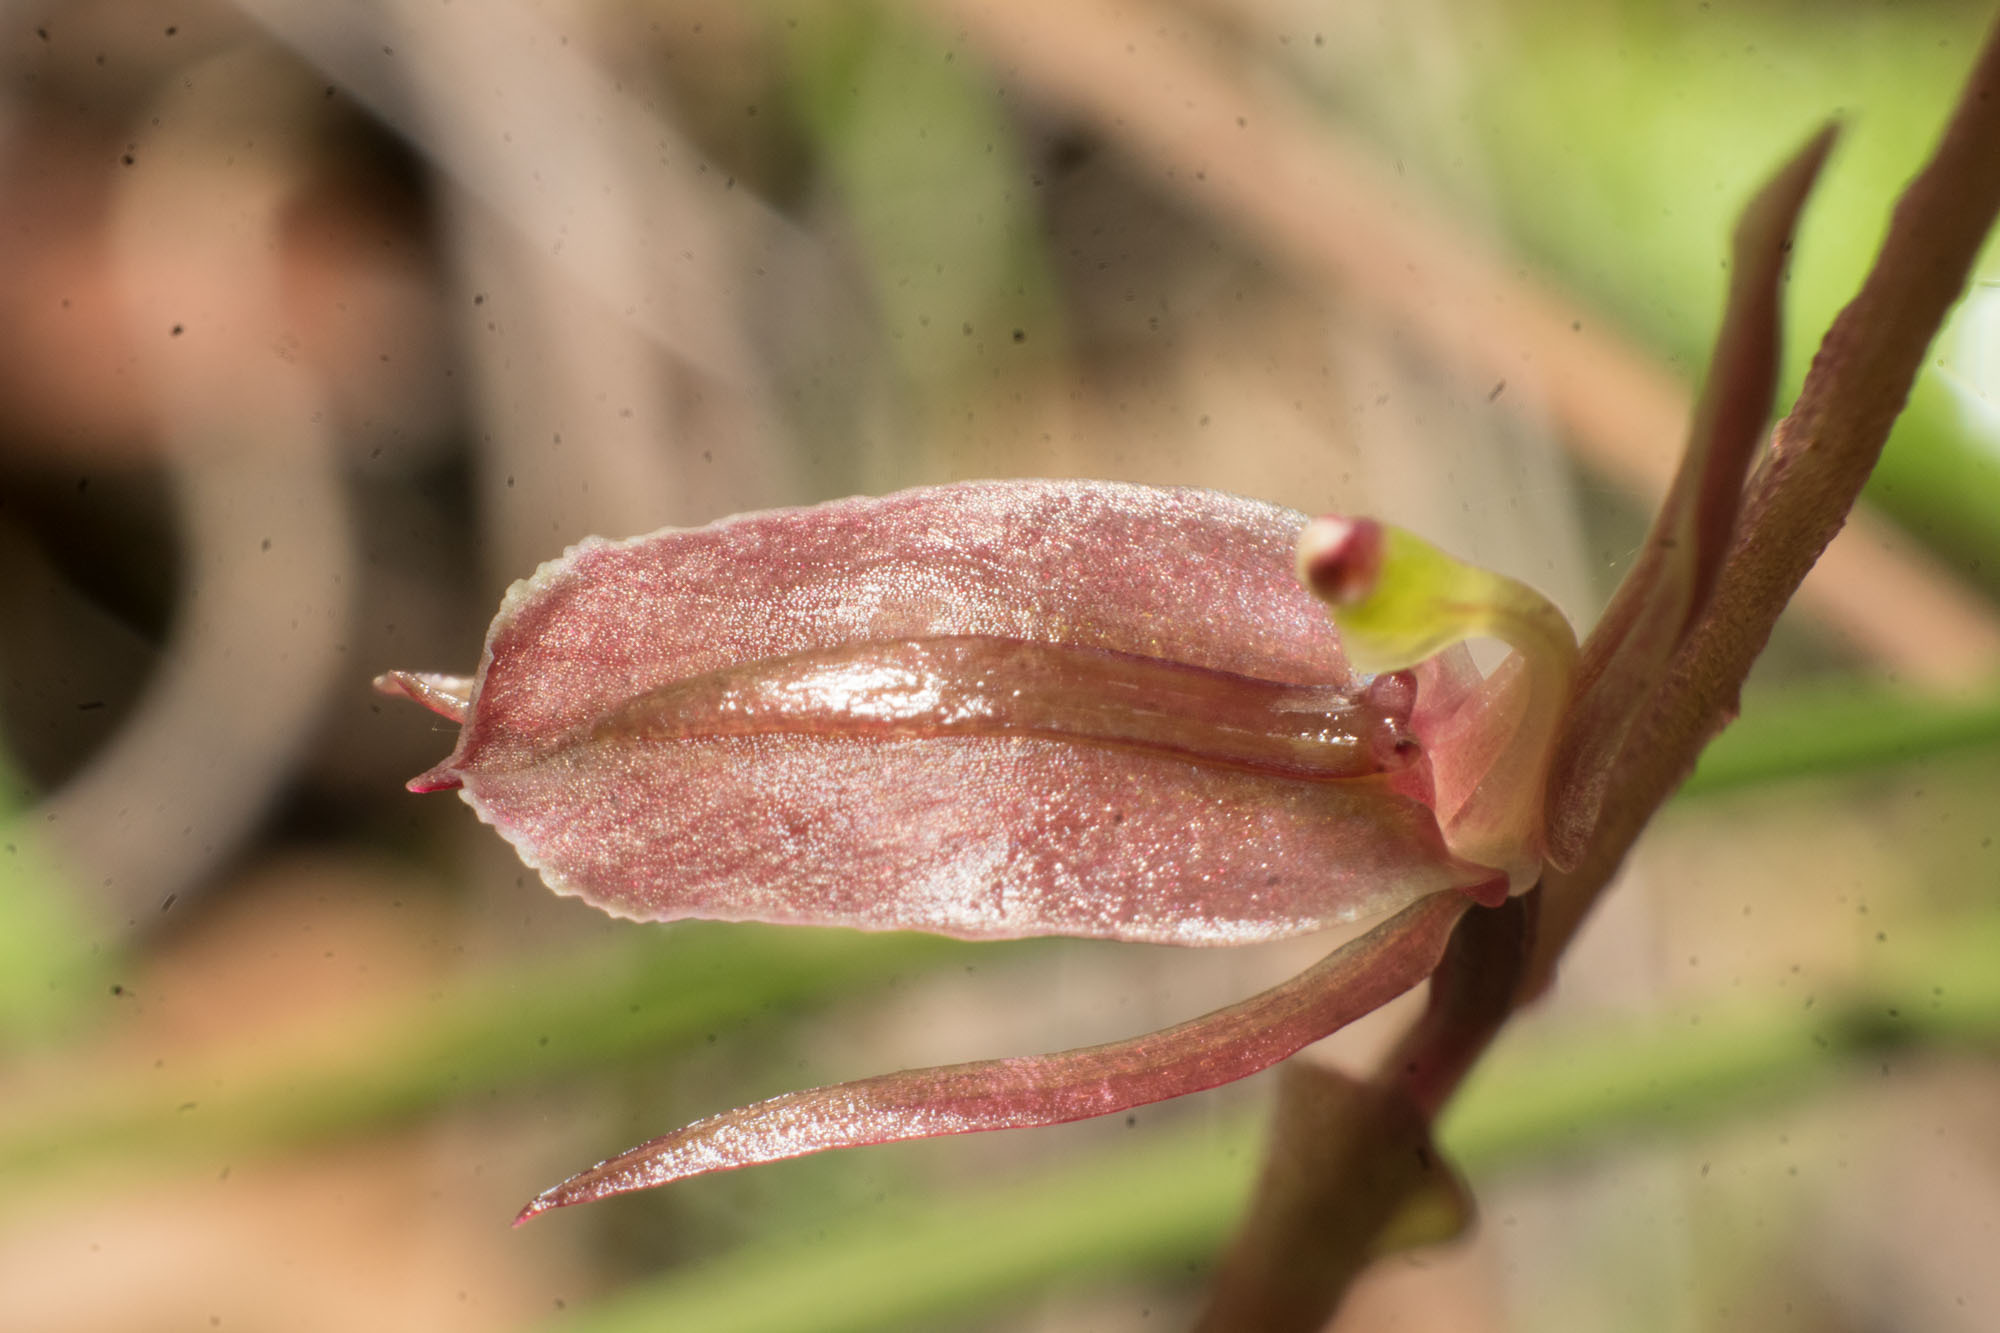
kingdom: Plantae
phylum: Tracheophyta
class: Liliopsida
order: Asparagales
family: Orchidaceae
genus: Cyrtostylis
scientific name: Cyrtostylis robusta
